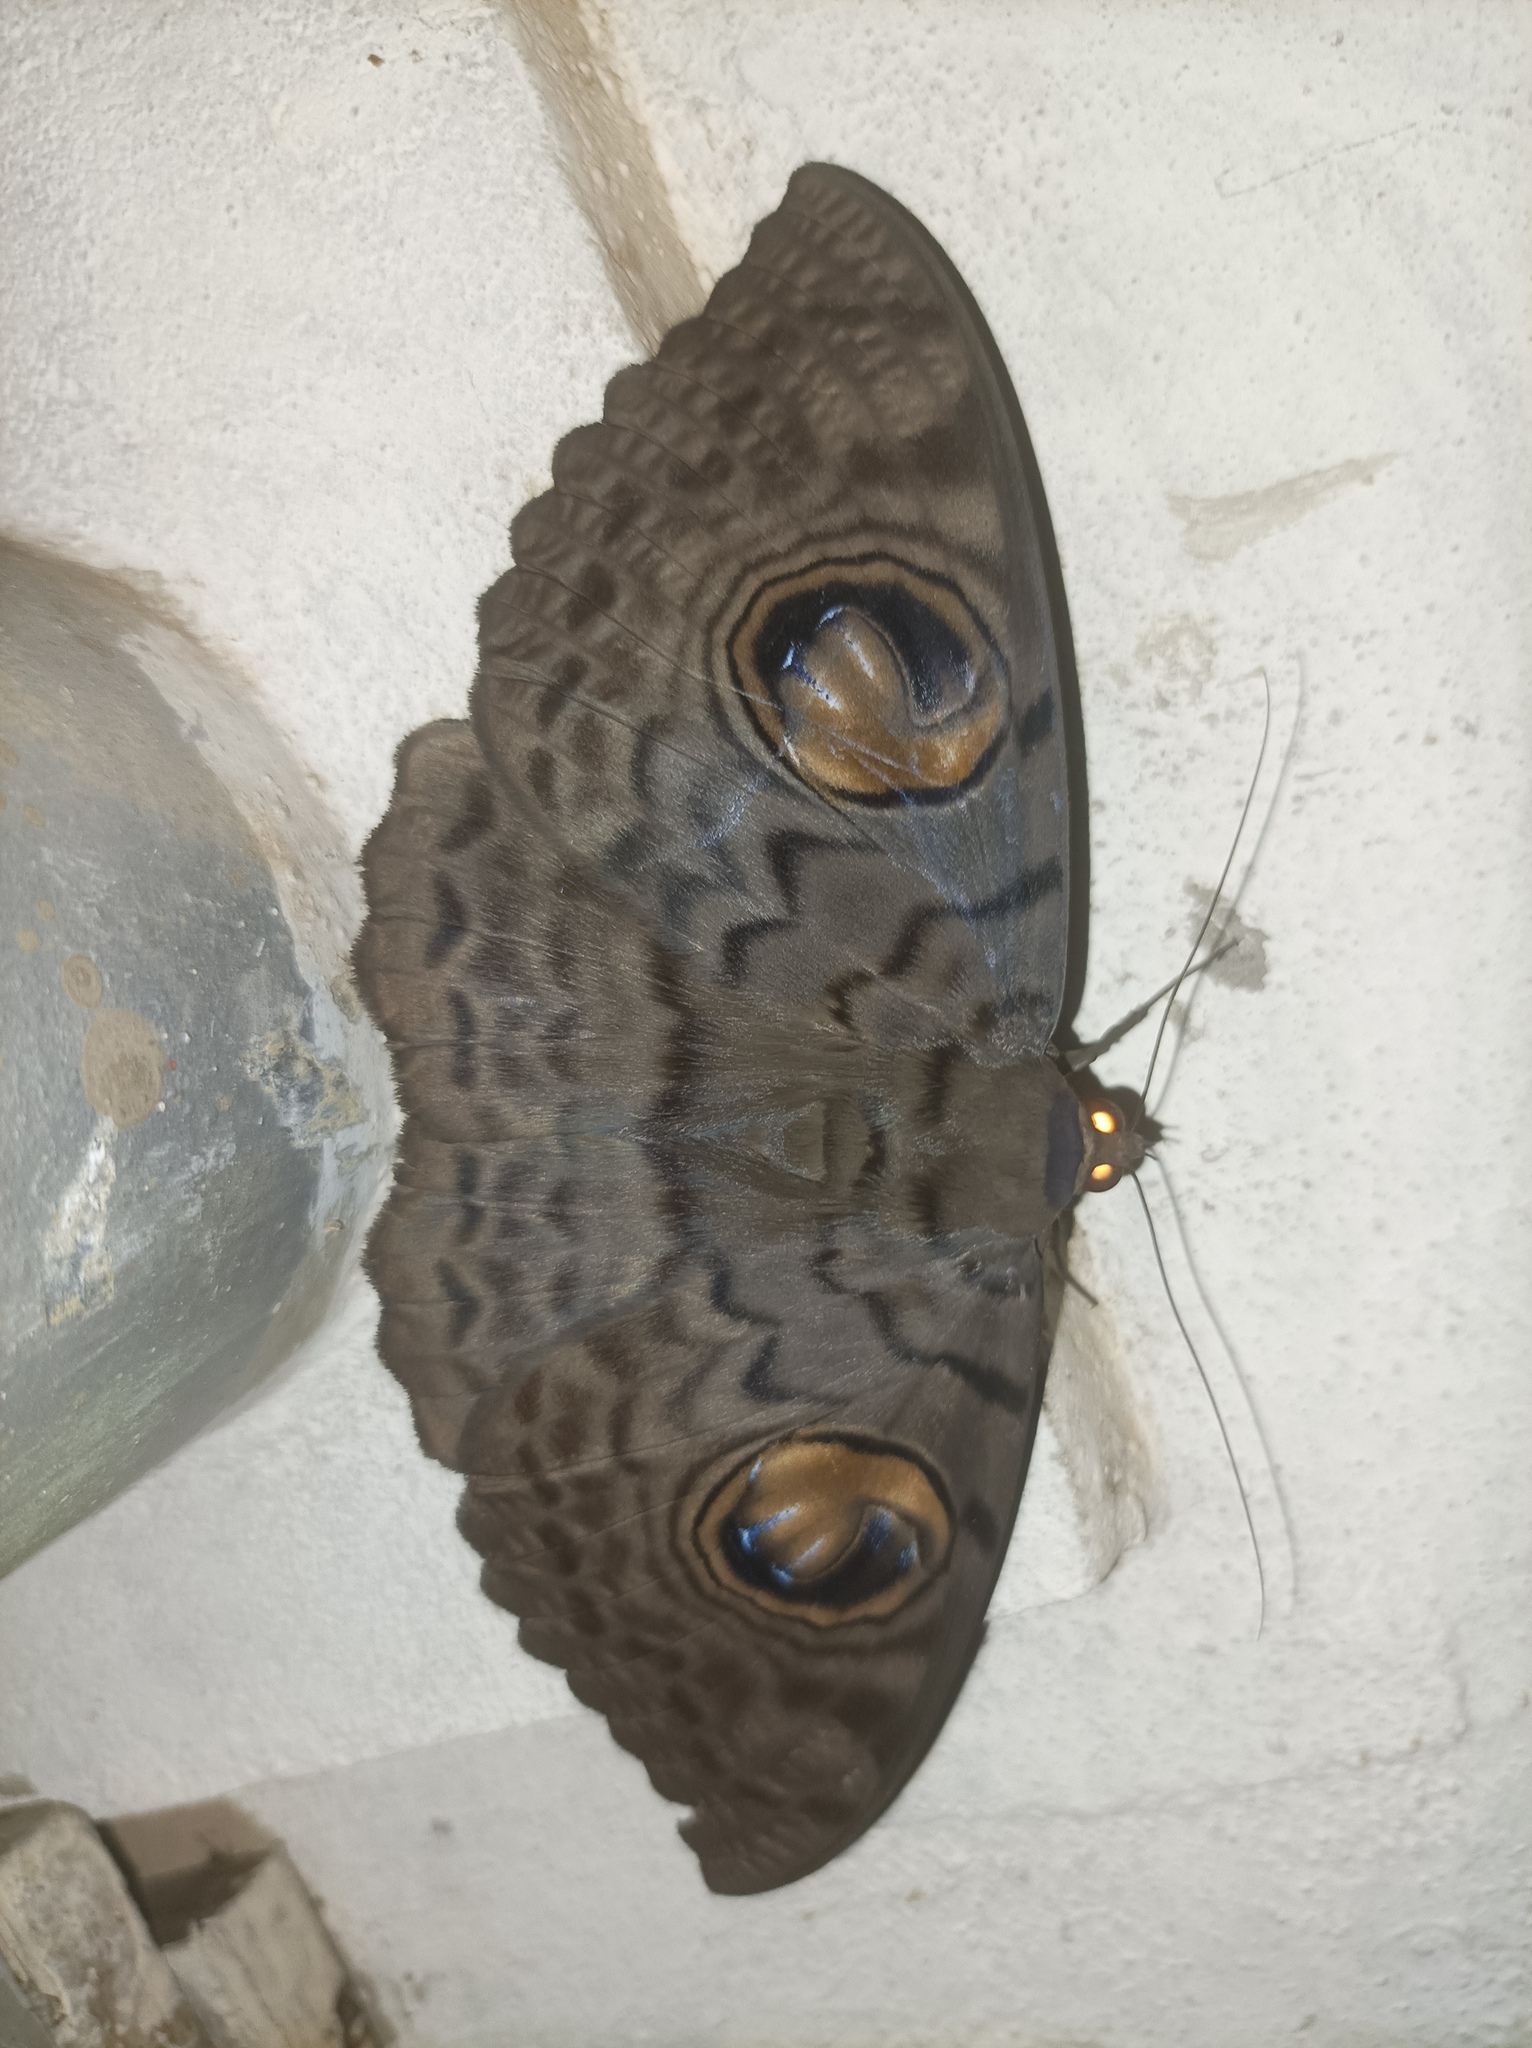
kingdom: Animalia
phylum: Arthropoda
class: Insecta
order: Lepidoptera
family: Erebidae
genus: Erebus
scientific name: Erebus macrops
